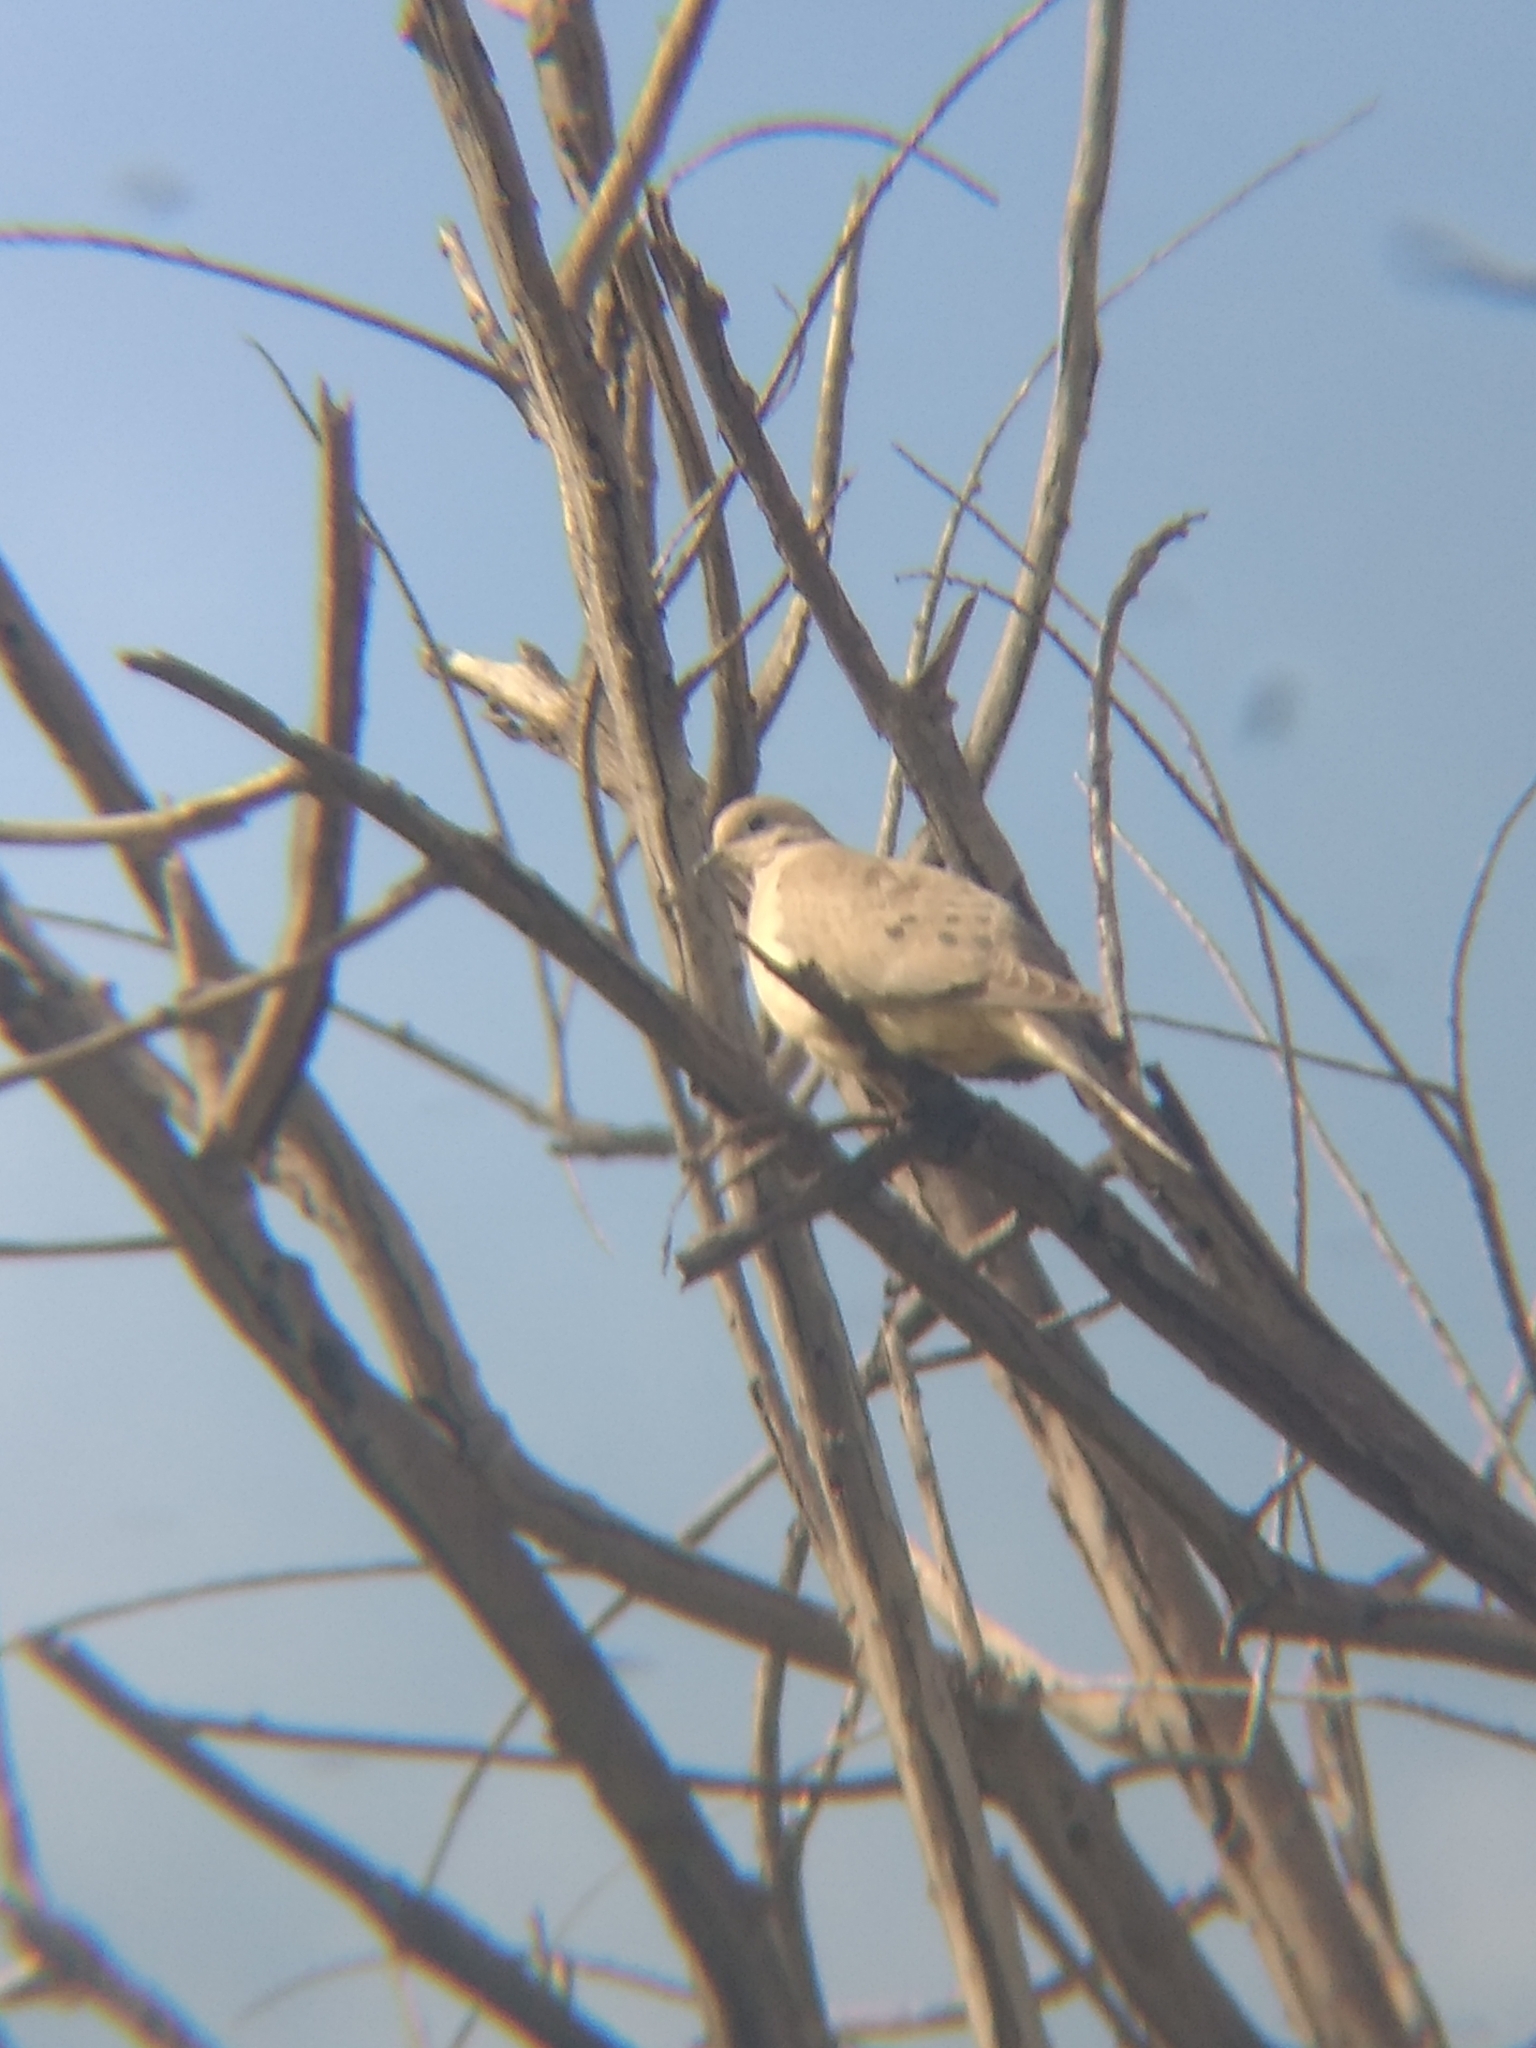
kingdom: Animalia
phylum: Chordata
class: Aves
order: Columbiformes
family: Columbidae
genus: Zenaida
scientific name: Zenaida macroura
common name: Mourning dove
